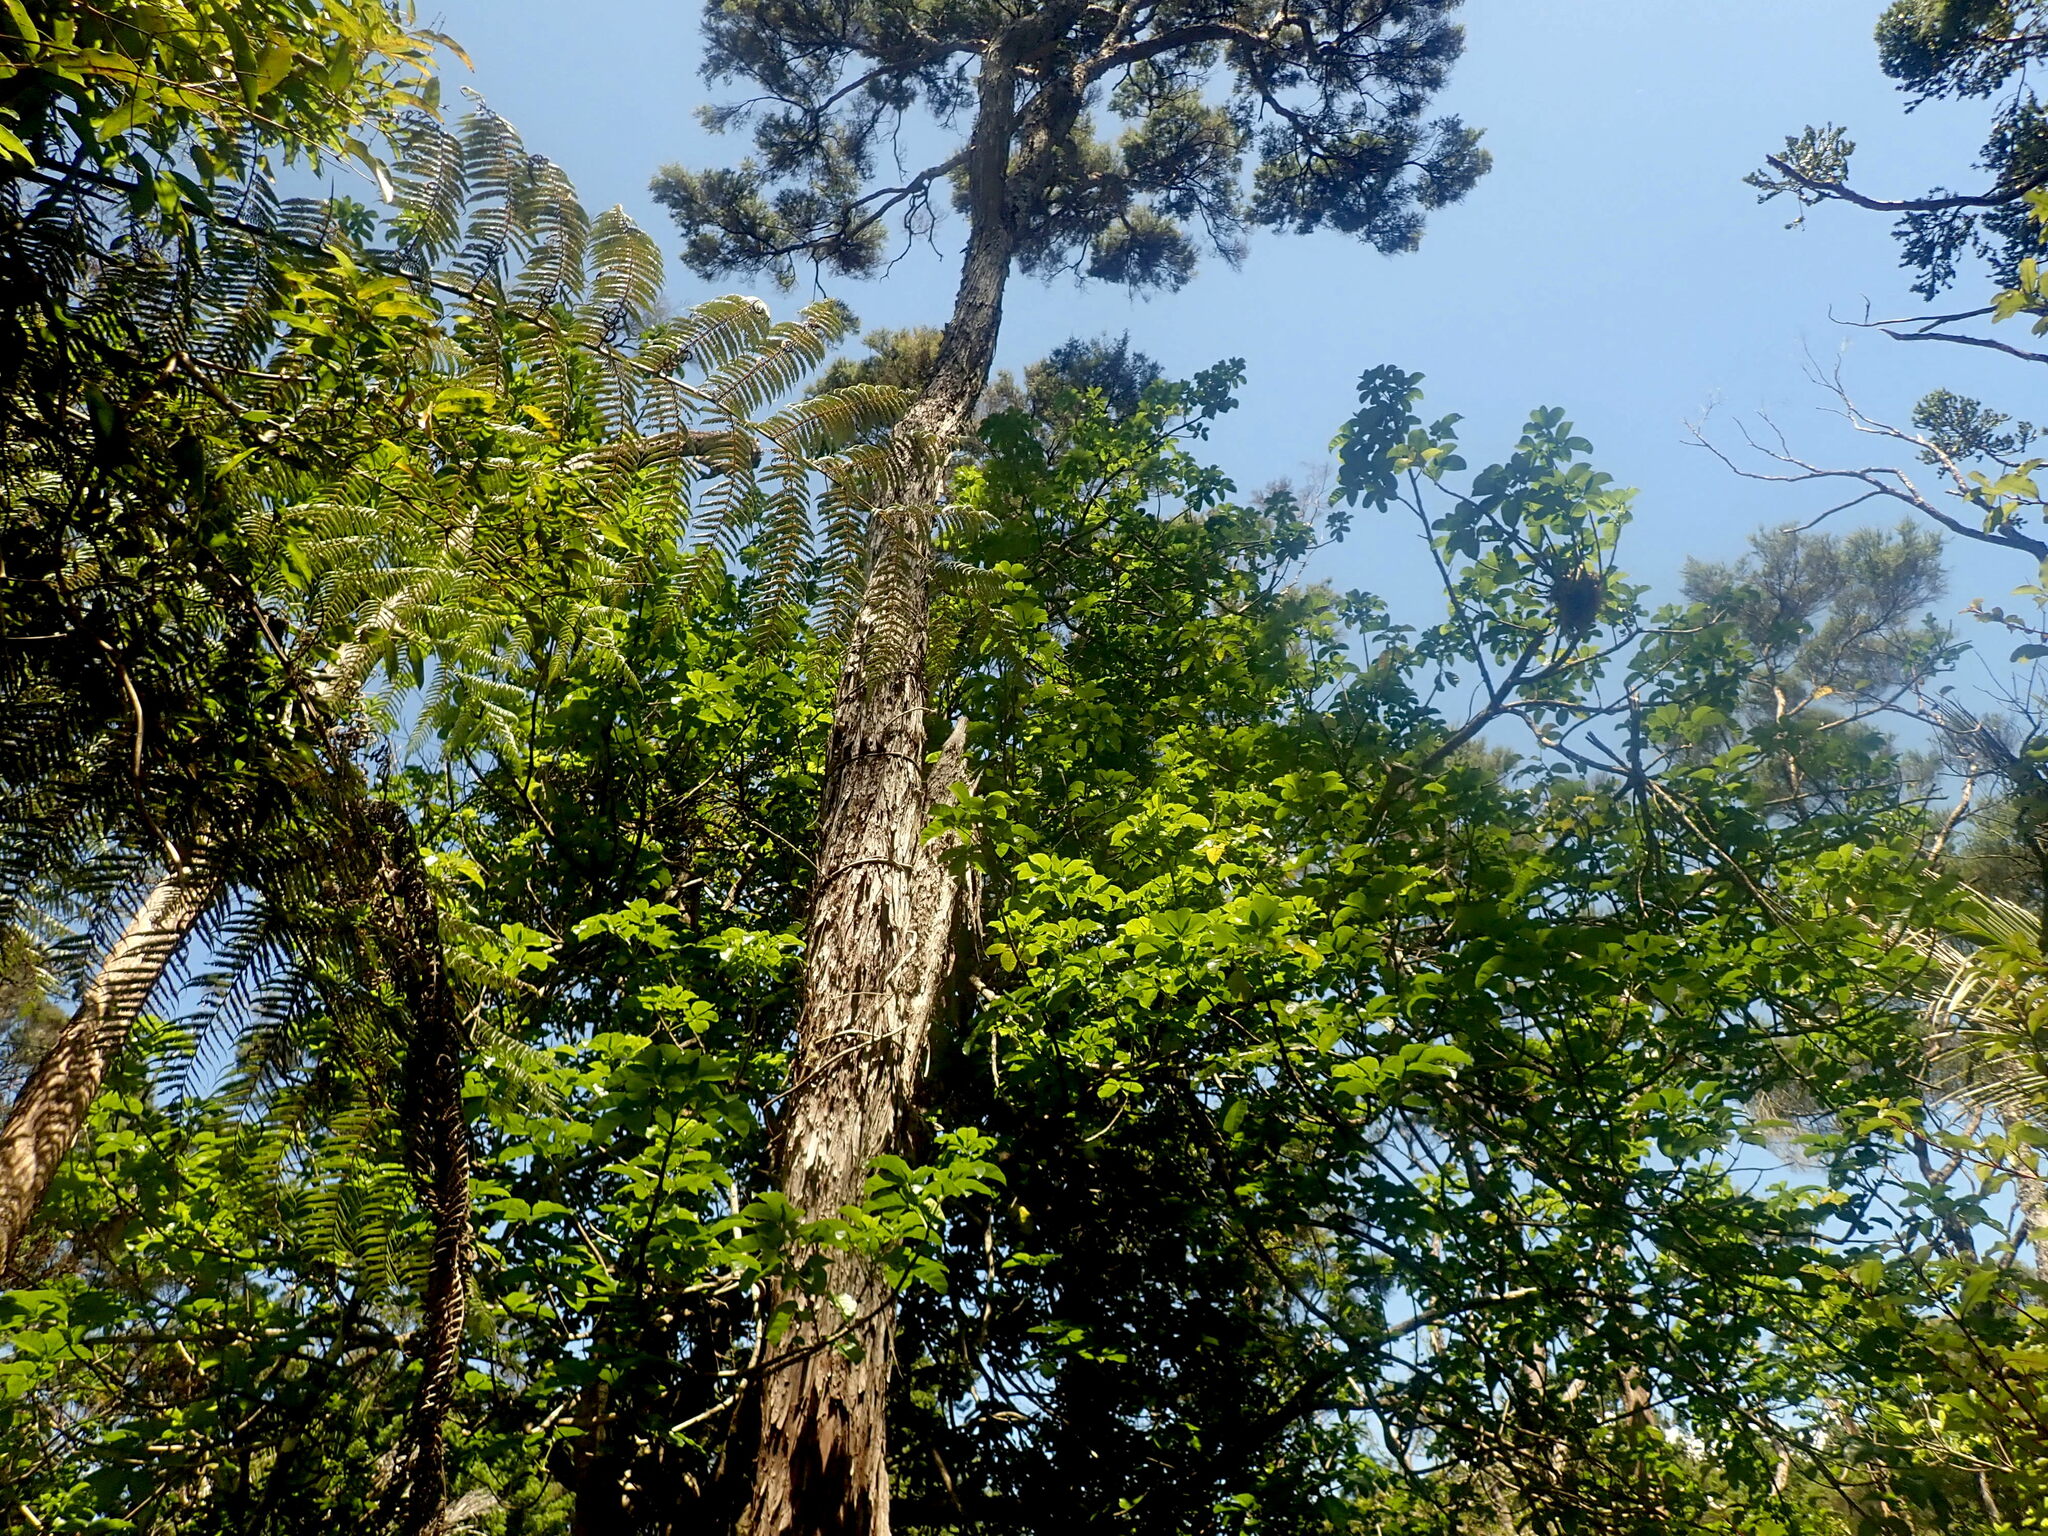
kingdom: Plantae
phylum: Tracheophyta
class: Liliopsida
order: Liliales
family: Ripogonaceae
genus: Ripogonum
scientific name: Ripogonum scandens
